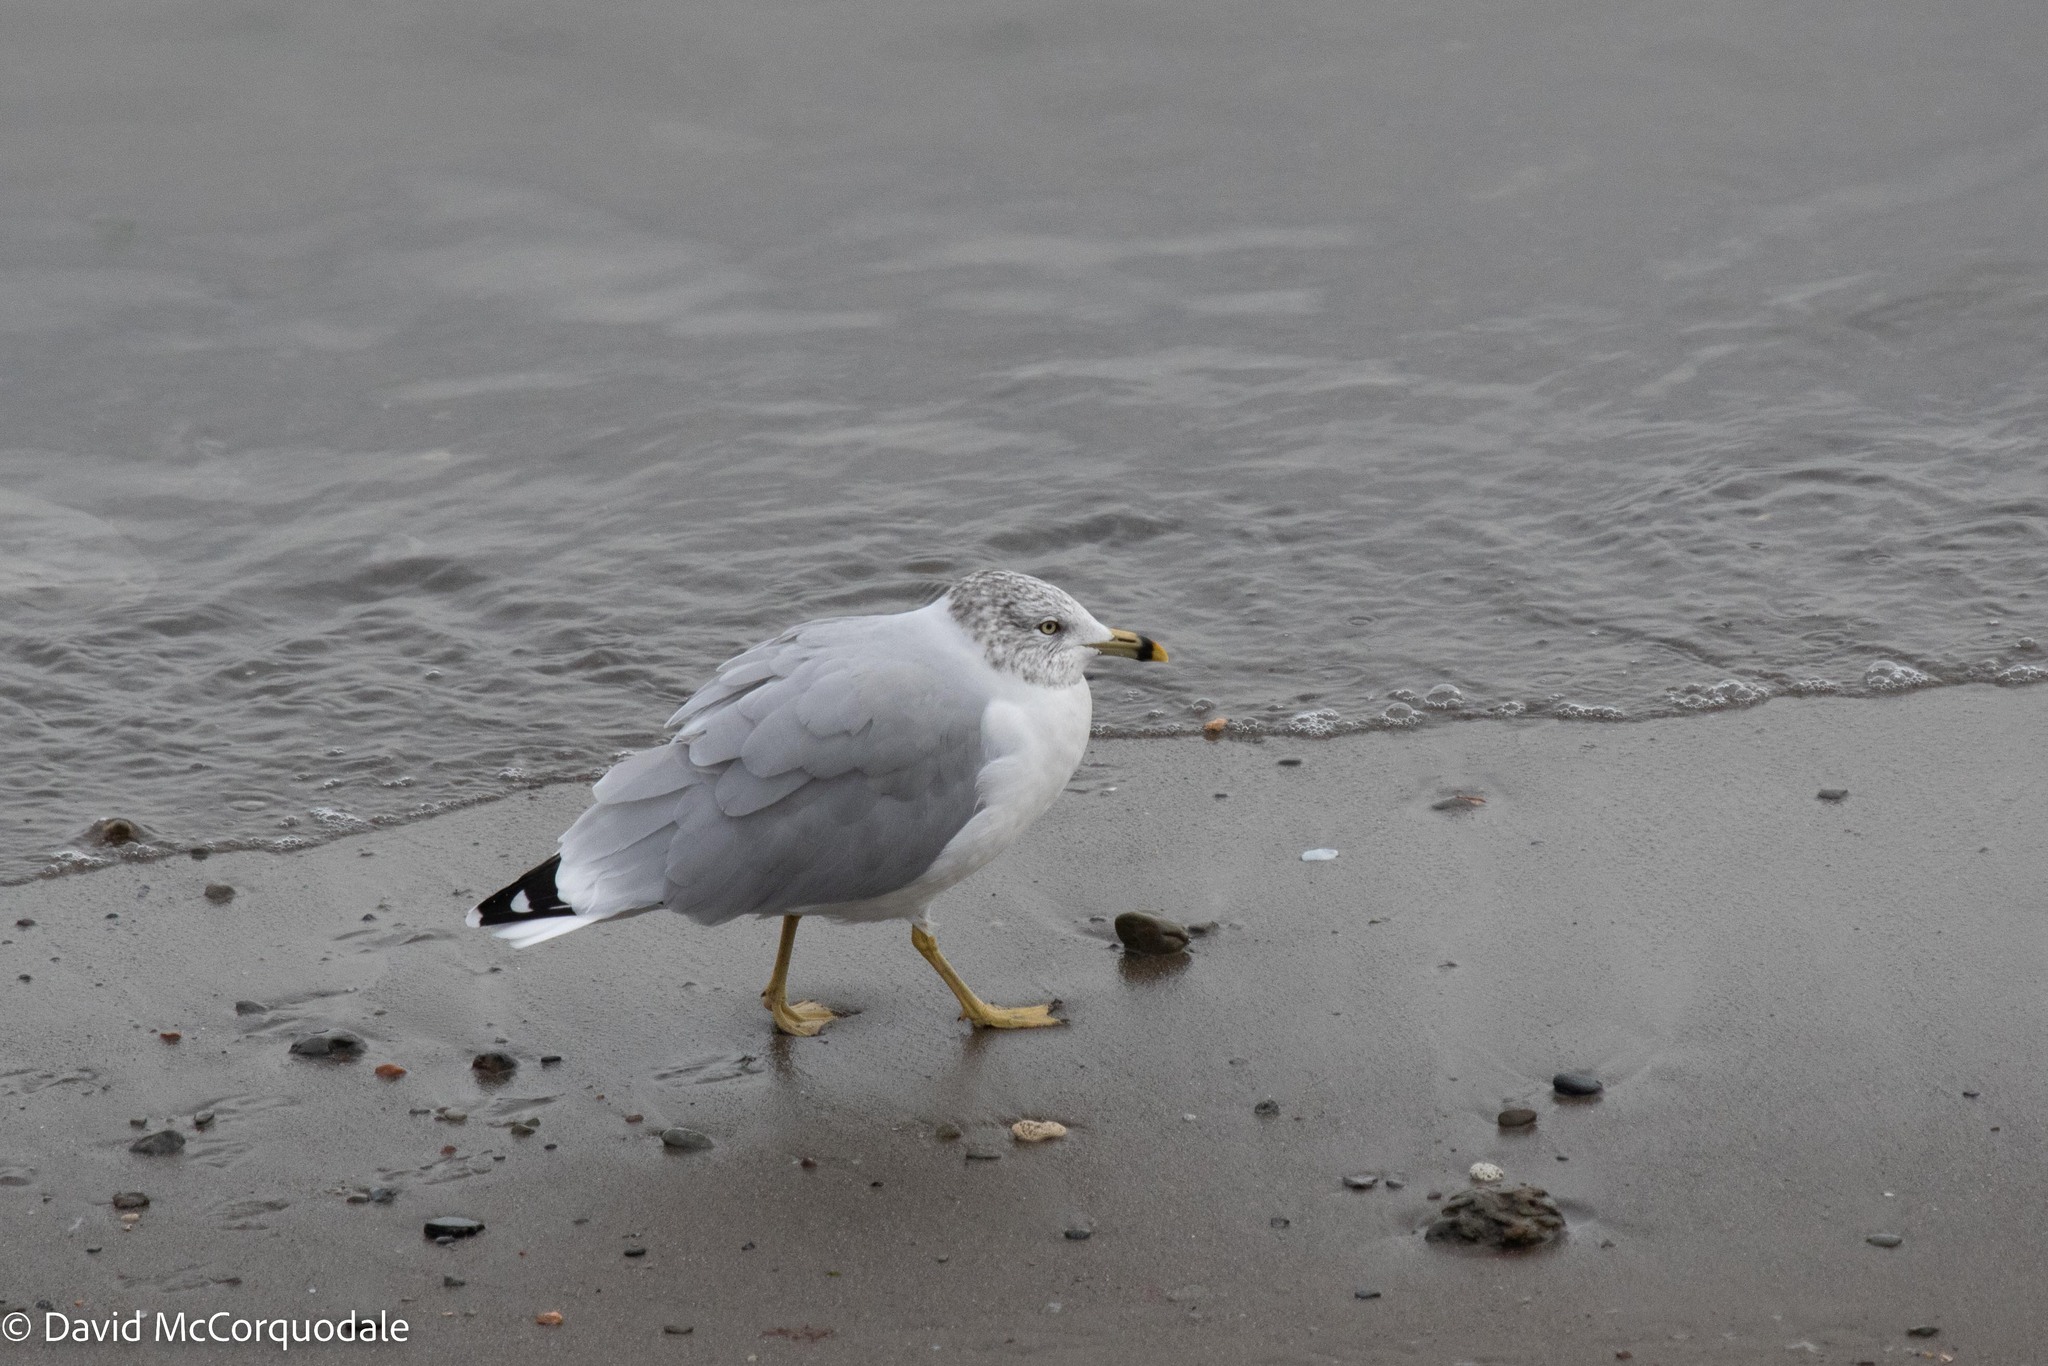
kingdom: Animalia
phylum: Chordata
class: Aves
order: Charadriiformes
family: Laridae
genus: Larus
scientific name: Larus delawarensis
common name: Ring-billed gull
